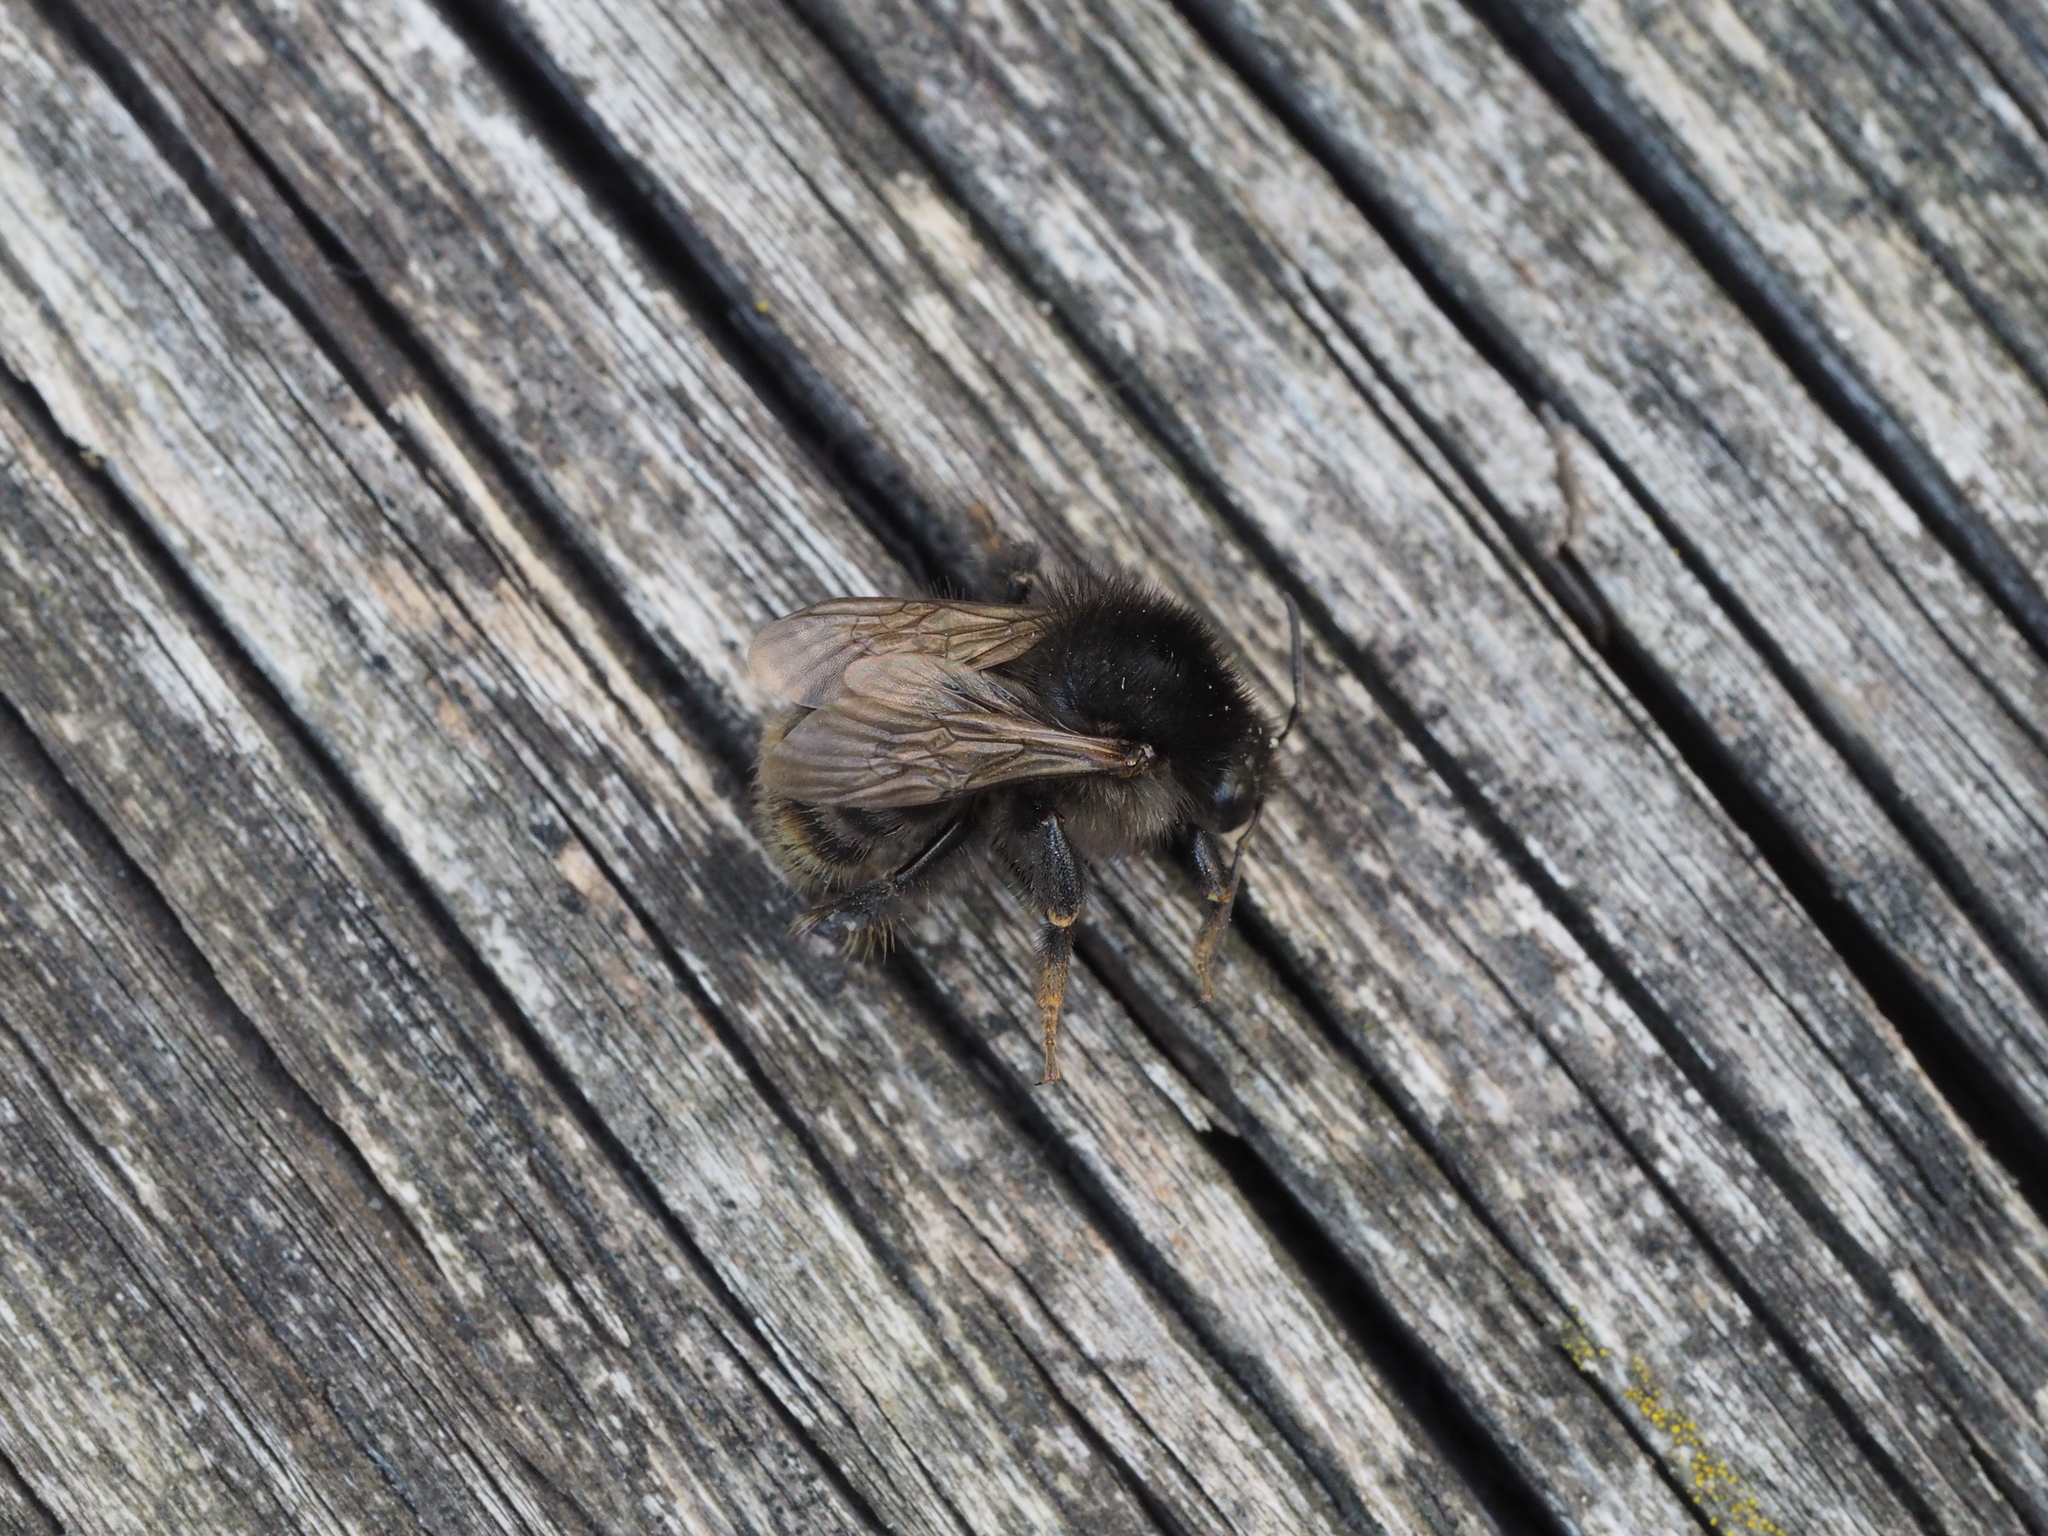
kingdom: Animalia
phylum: Arthropoda
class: Insecta
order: Hymenoptera
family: Apidae
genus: Bombus
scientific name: Bombus humilis
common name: Brown-banded carder-bee
